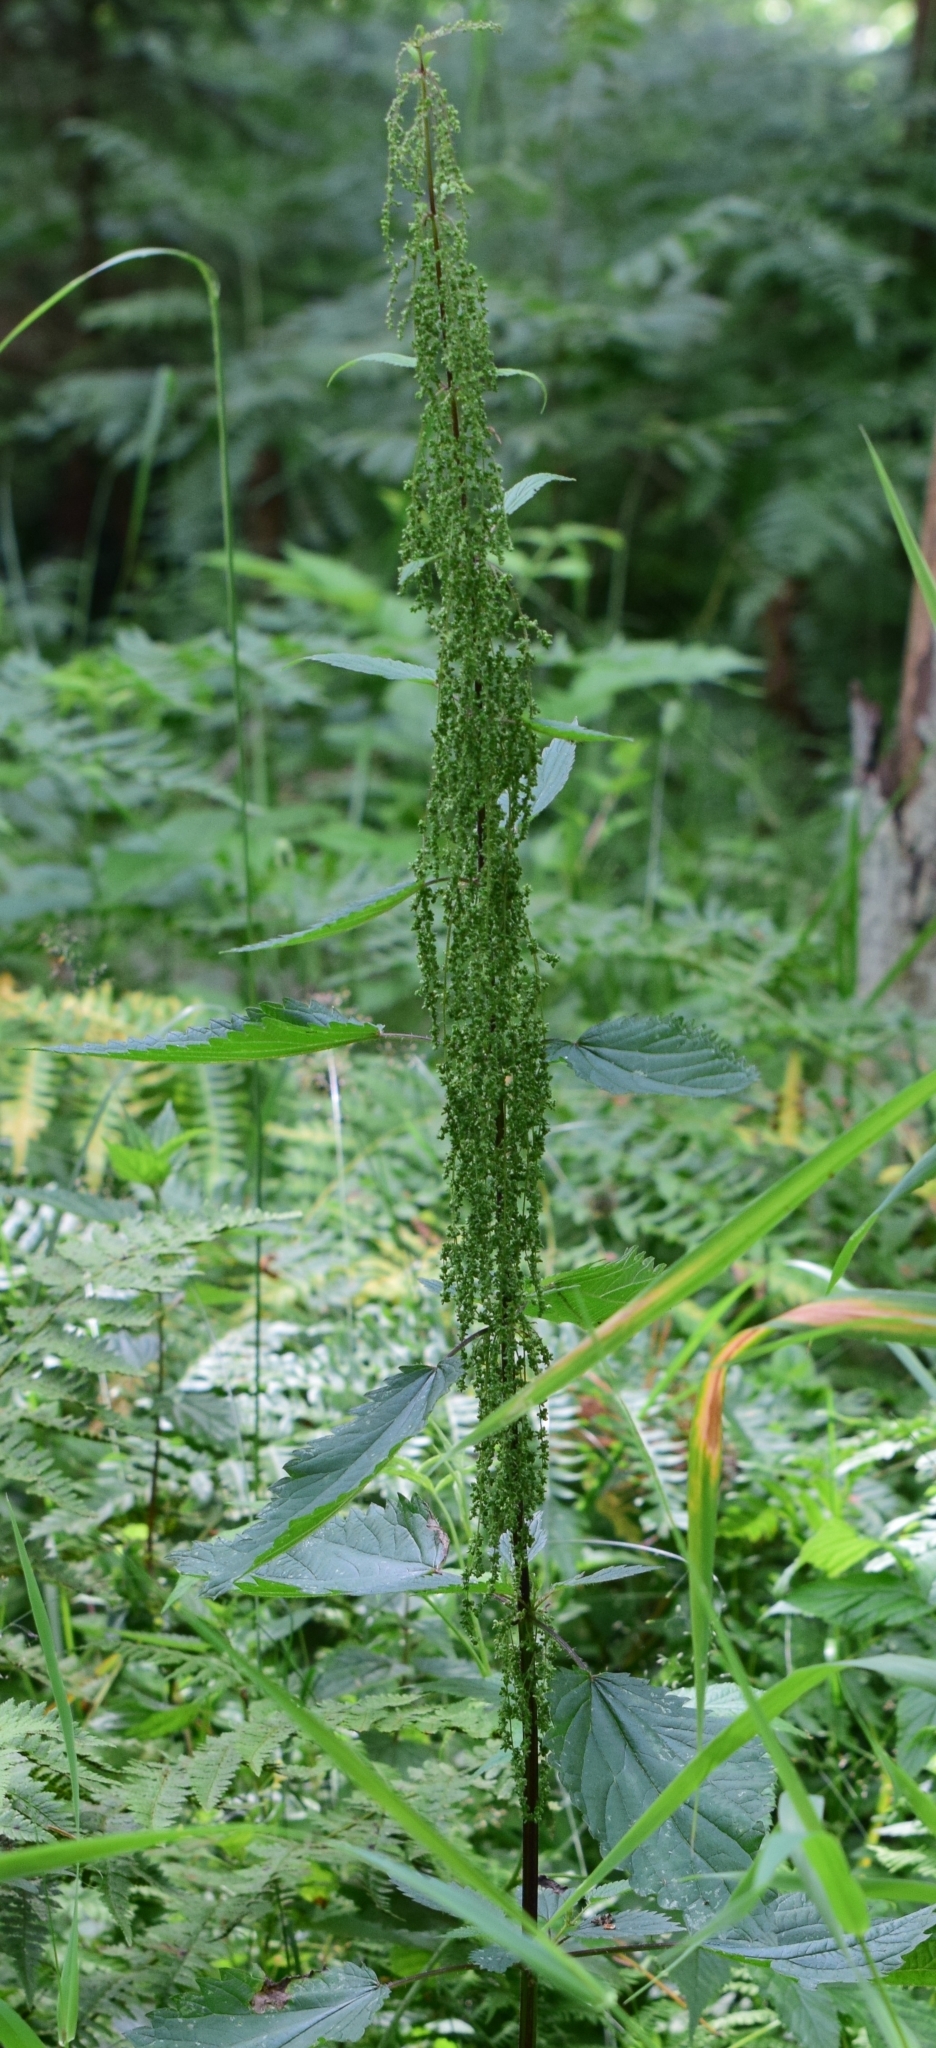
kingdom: Plantae
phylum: Tracheophyta
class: Magnoliopsida
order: Rosales
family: Urticaceae
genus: Urtica
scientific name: Urtica dioica
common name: Common nettle
